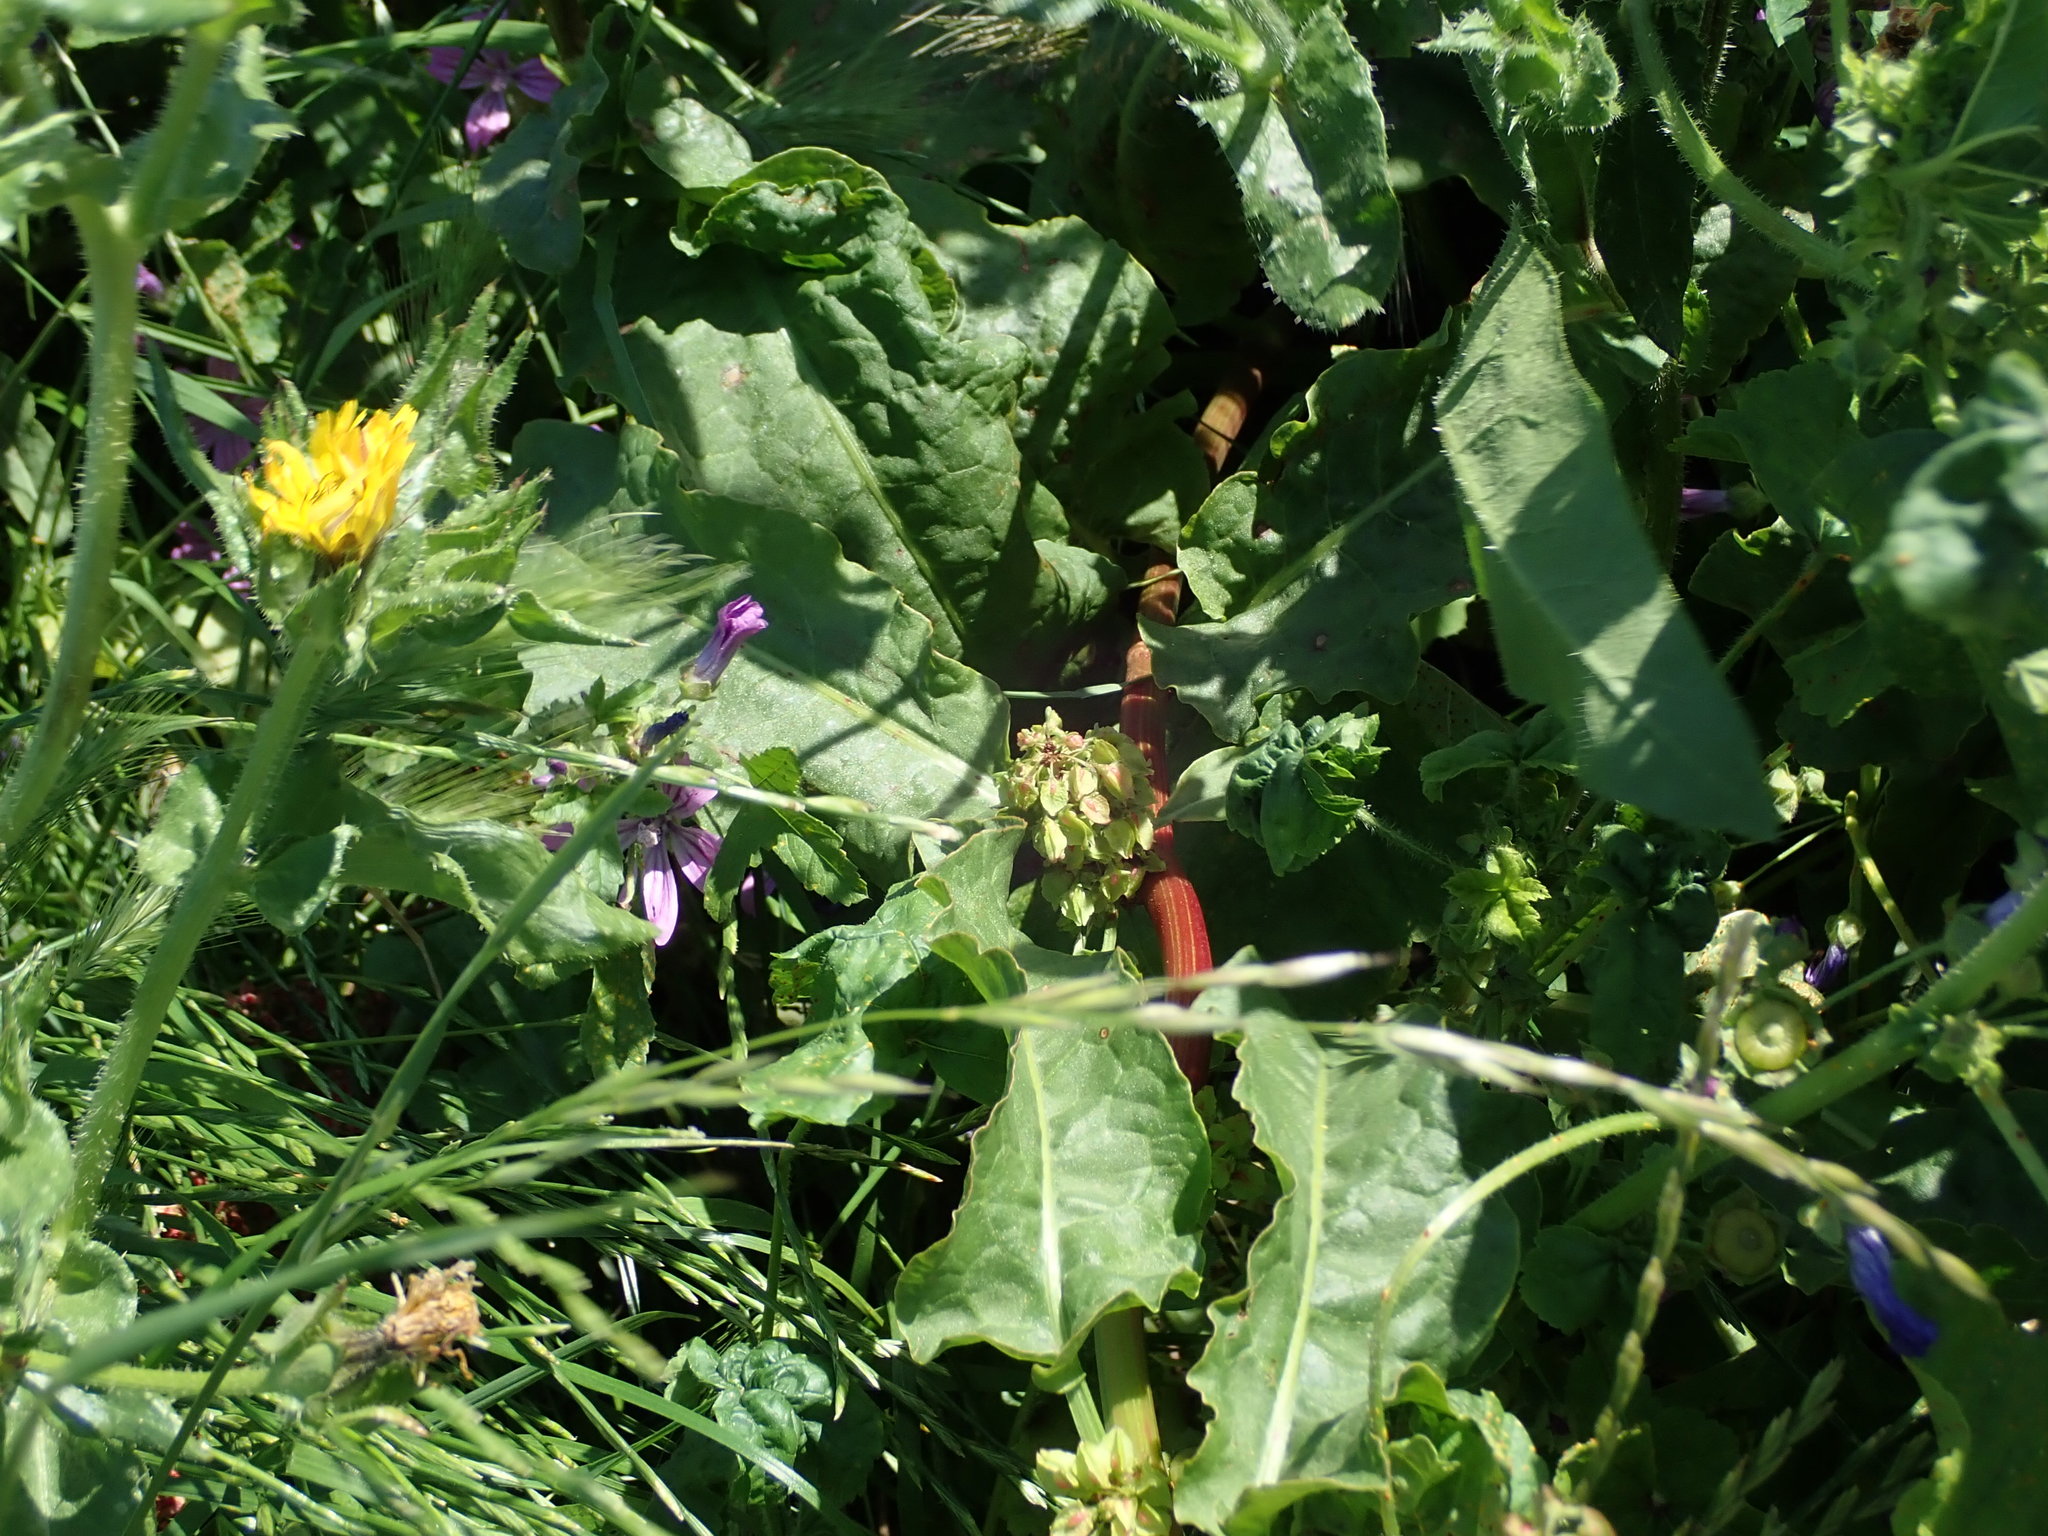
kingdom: Plantae
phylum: Tracheophyta
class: Magnoliopsida
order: Caryophyllales
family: Polygonaceae
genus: Rumex
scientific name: Rumex acutus
